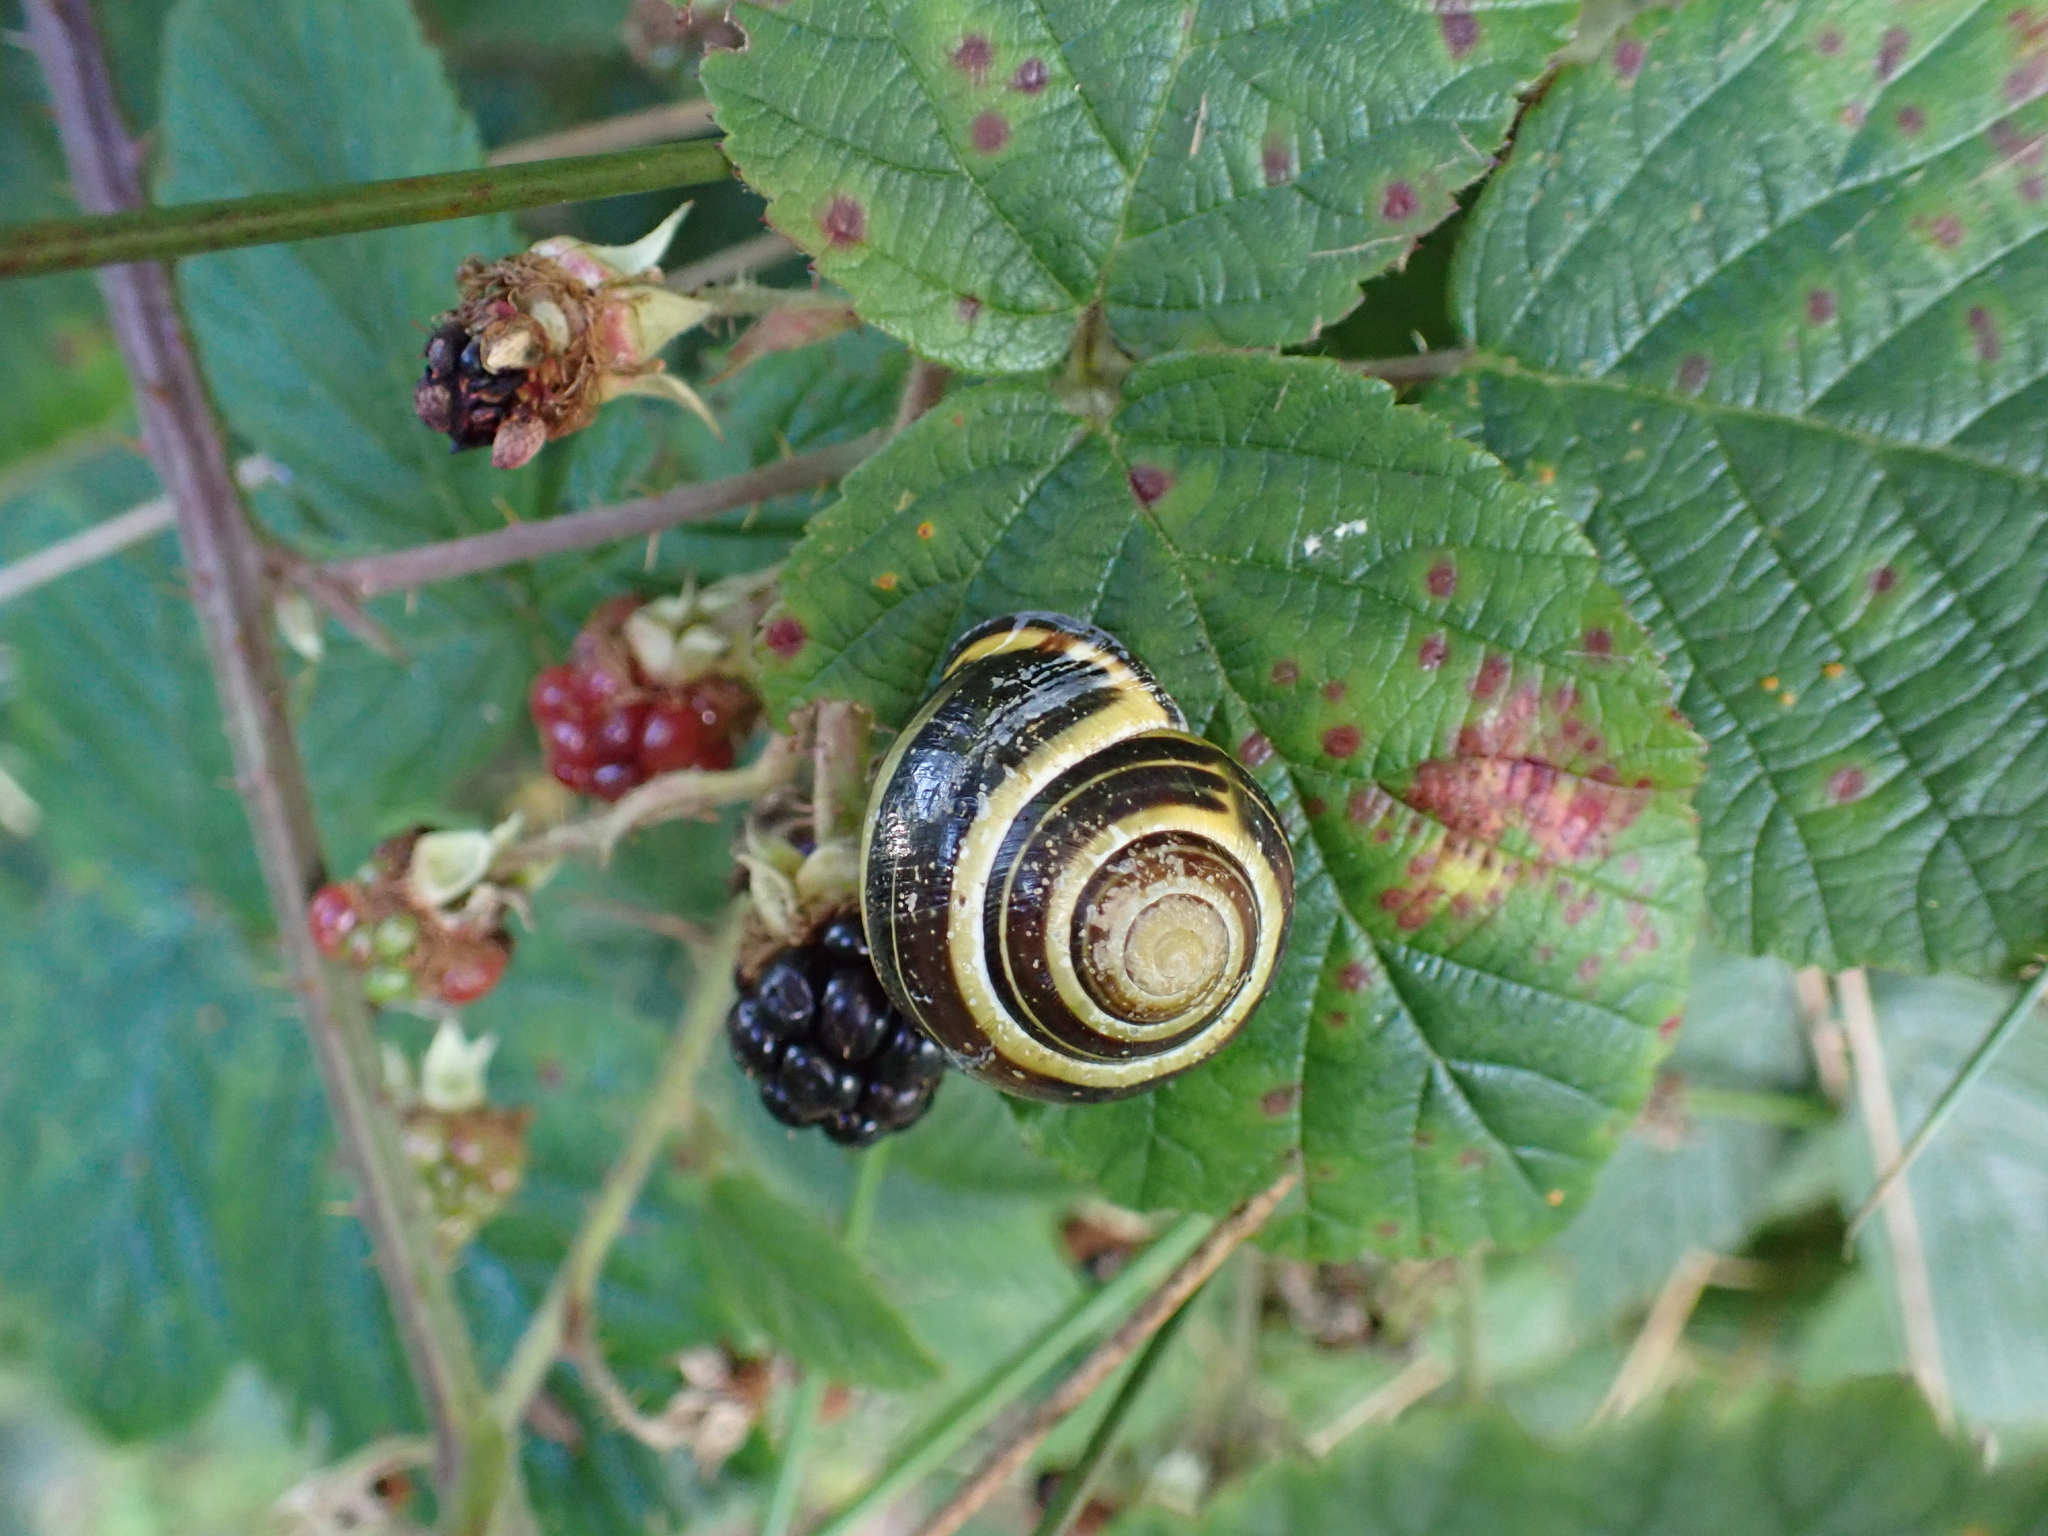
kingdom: Animalia
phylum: Mollusca
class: Gastropoda
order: Stylommatophora
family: Helicidae
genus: Cepaea
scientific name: Cepaea nemoralis
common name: Grovesnail
